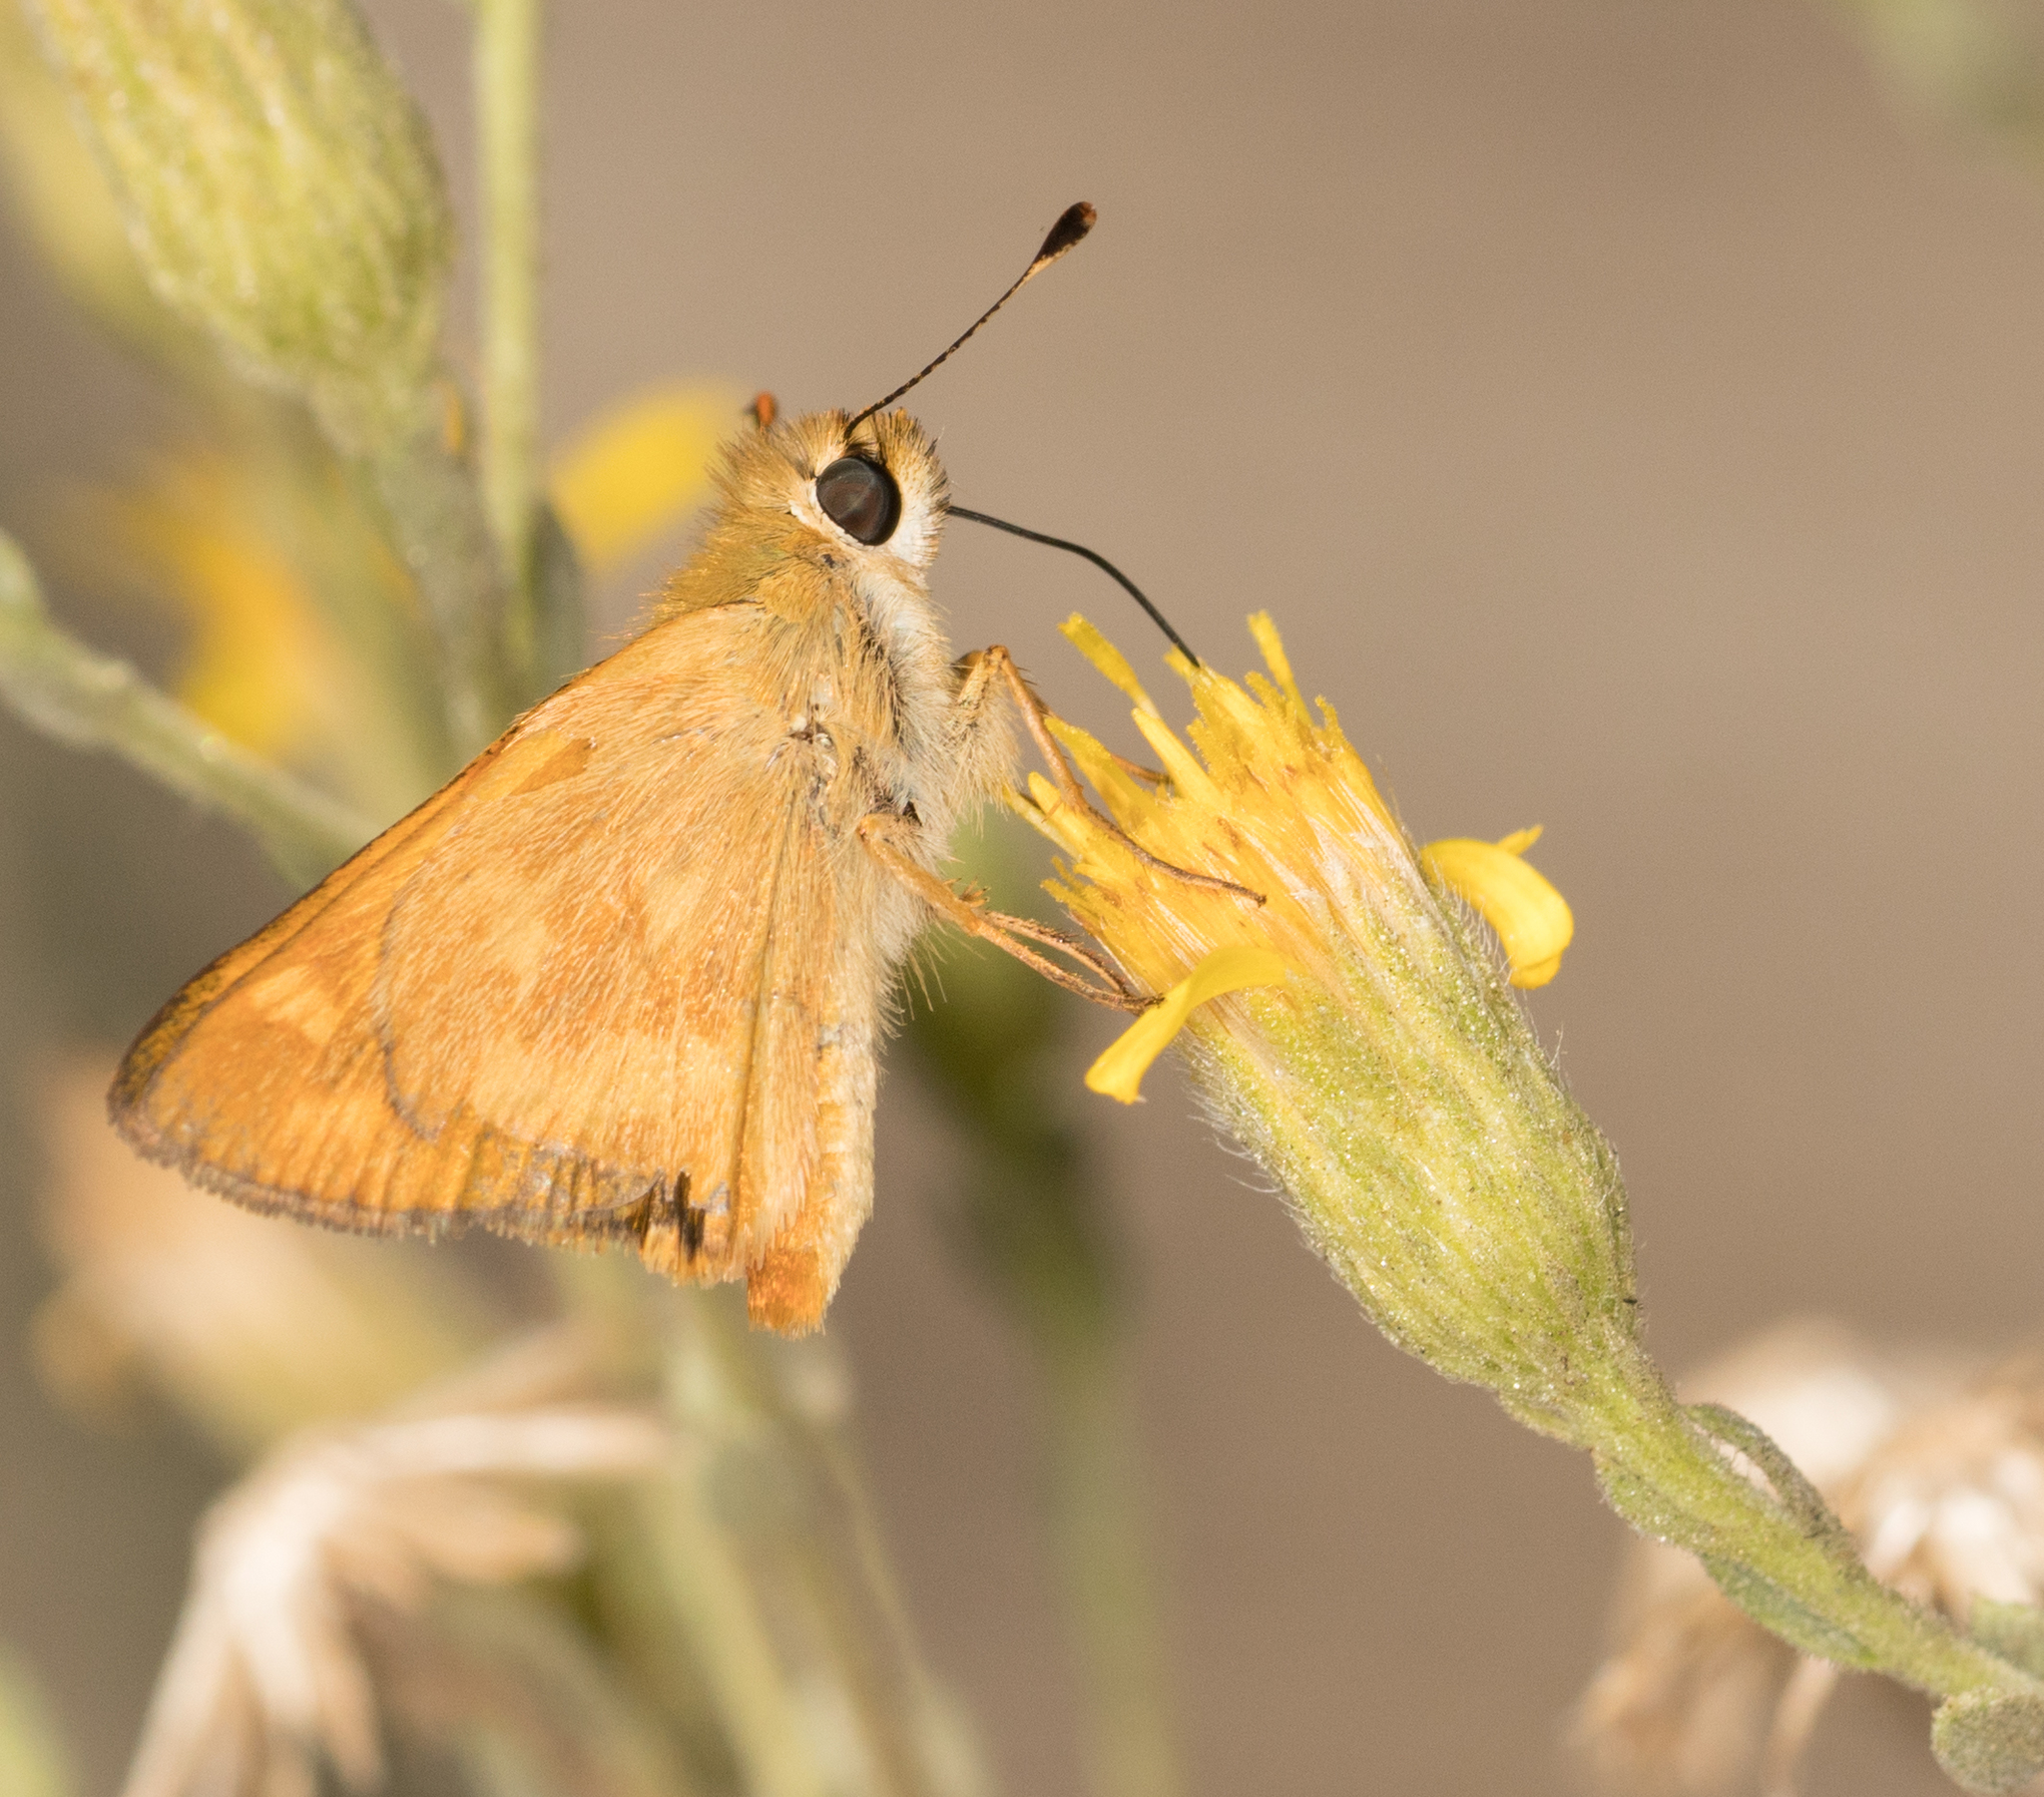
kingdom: Animalia
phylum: Arthropoda
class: Insecta
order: Lepidoptera
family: Hesperiidae
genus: Ochlodes
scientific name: Ochlodes sylvanoides
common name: Woodland skipper
